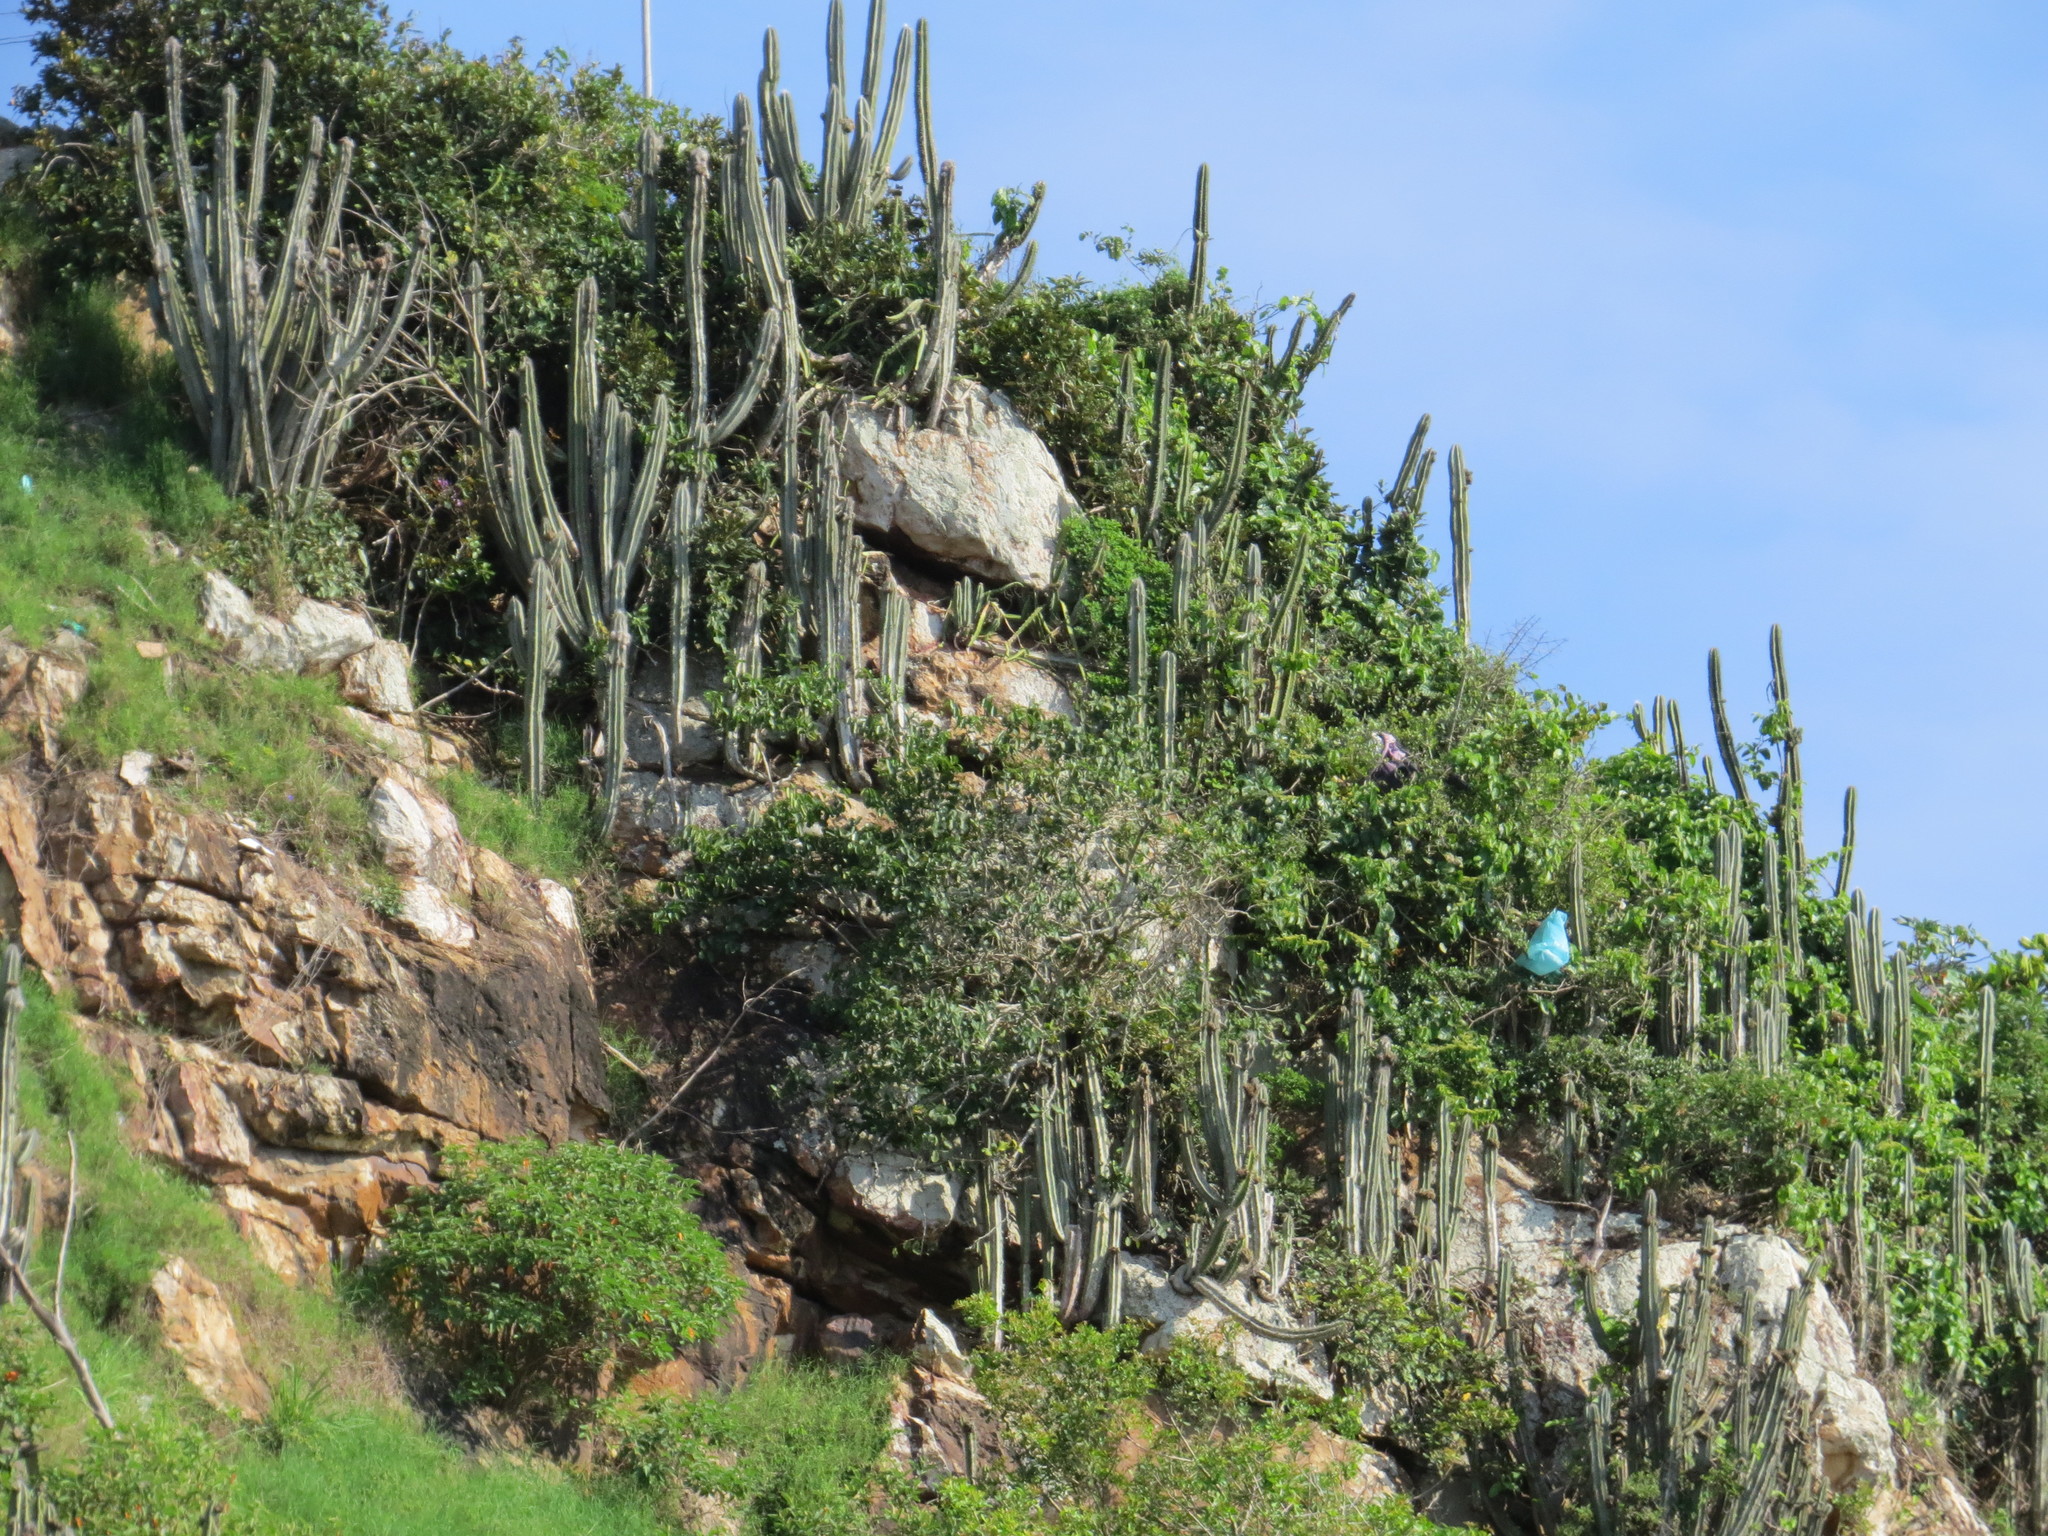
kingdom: Plantae
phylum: Tracheophyta
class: Magnoliopsida
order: Caryophyllales
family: Cactaceae
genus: Pilosocereus
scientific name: Pilosocereus ulei
